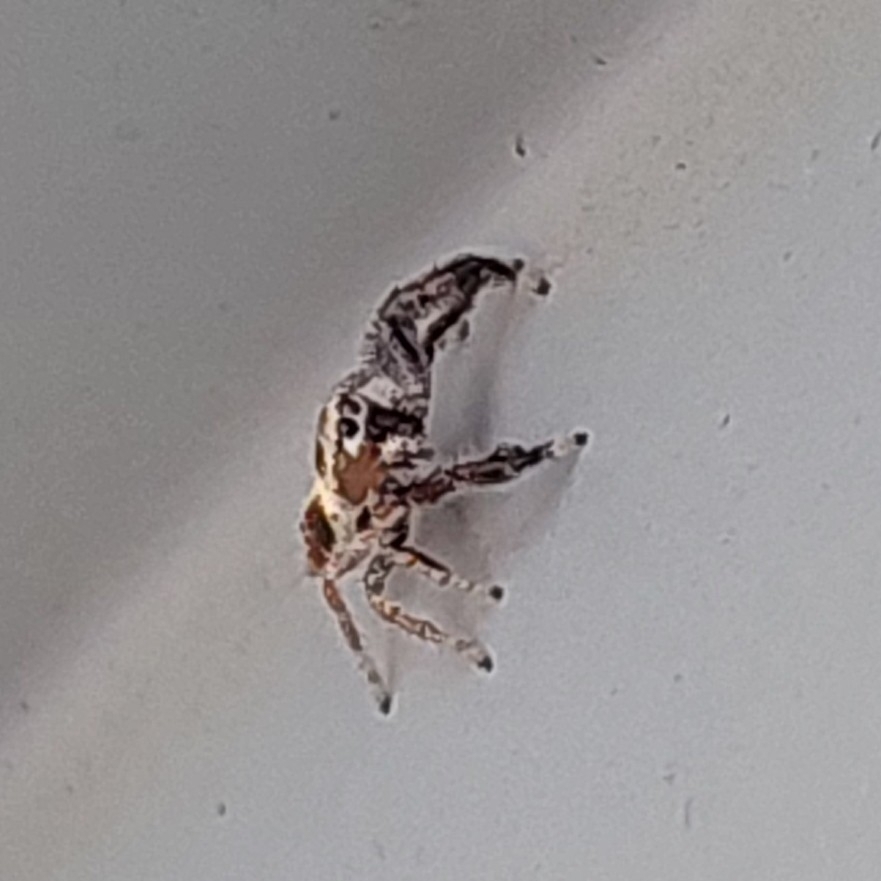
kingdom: Animalia
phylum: Arthropoda
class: Arachnida
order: Araneae
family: Salticidae
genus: Thyene
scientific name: Thyene imperialis
